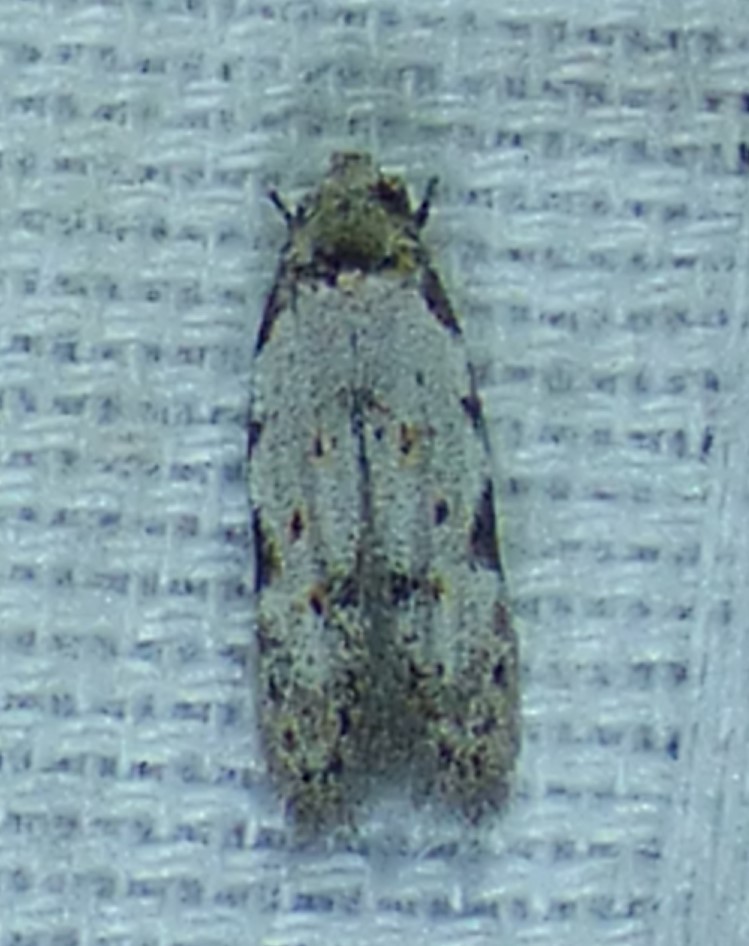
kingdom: Animalia
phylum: Arthropoda
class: Insecta
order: Lepidoptera
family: Autostichidae
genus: Taygete
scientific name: Taygete attributella
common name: Triangle-marked twirler moth
